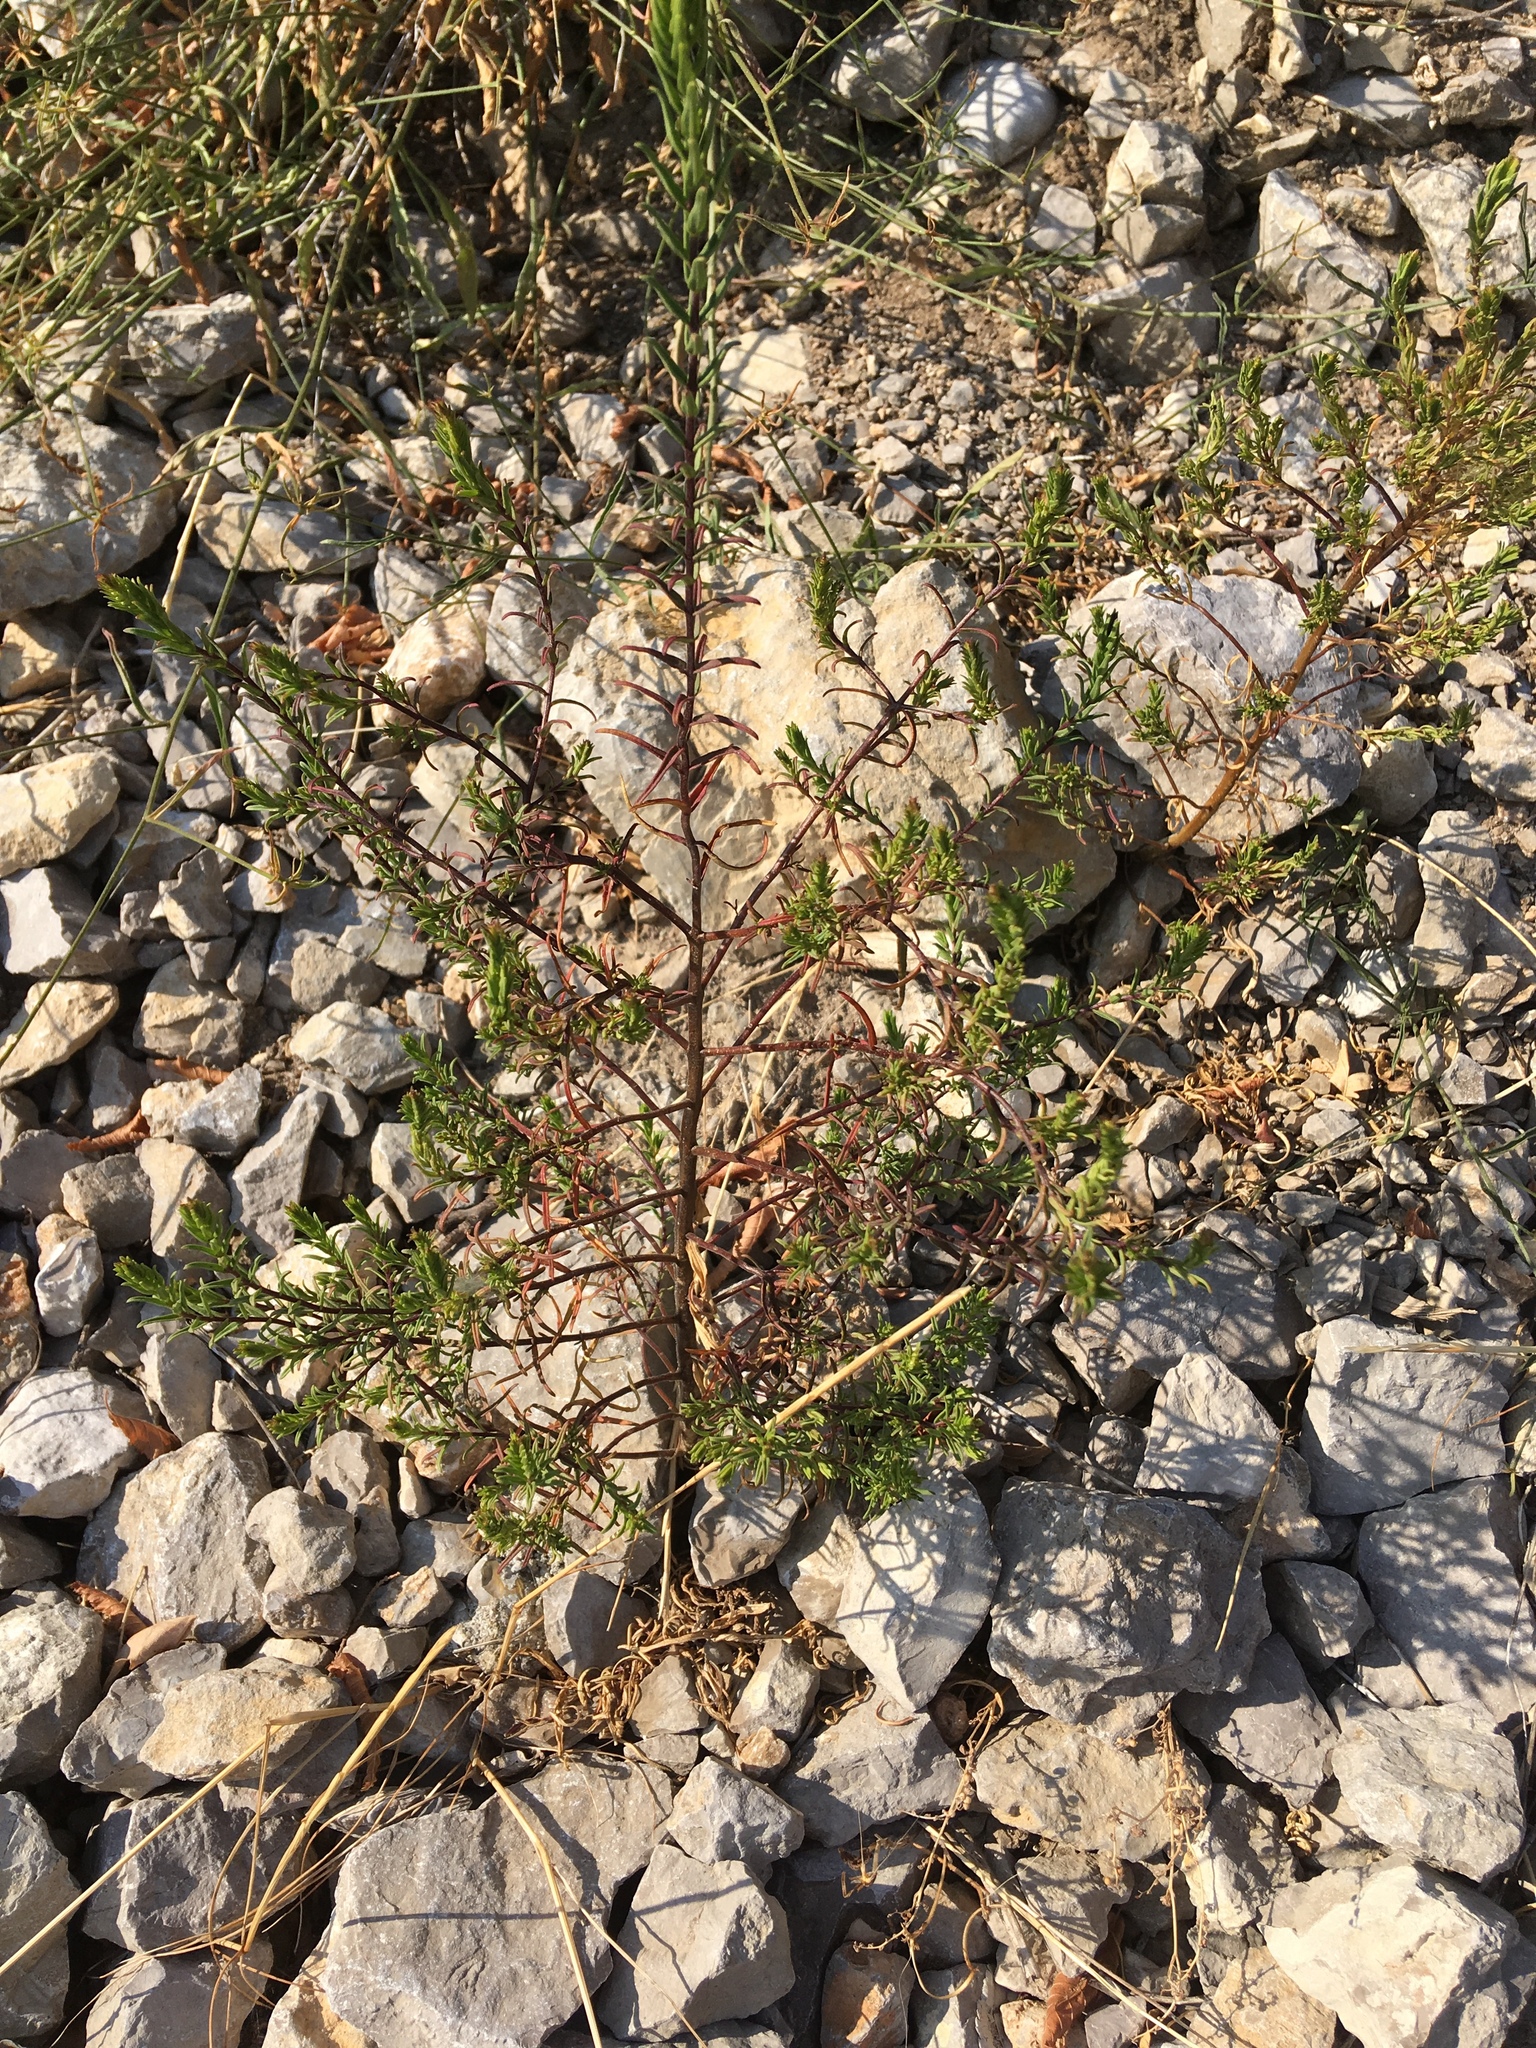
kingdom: Plantae
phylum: Tracheophyta
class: Magnoliopsida
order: Lamiales
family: Orobanchaceae
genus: Odontites
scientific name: Odontites luteus
